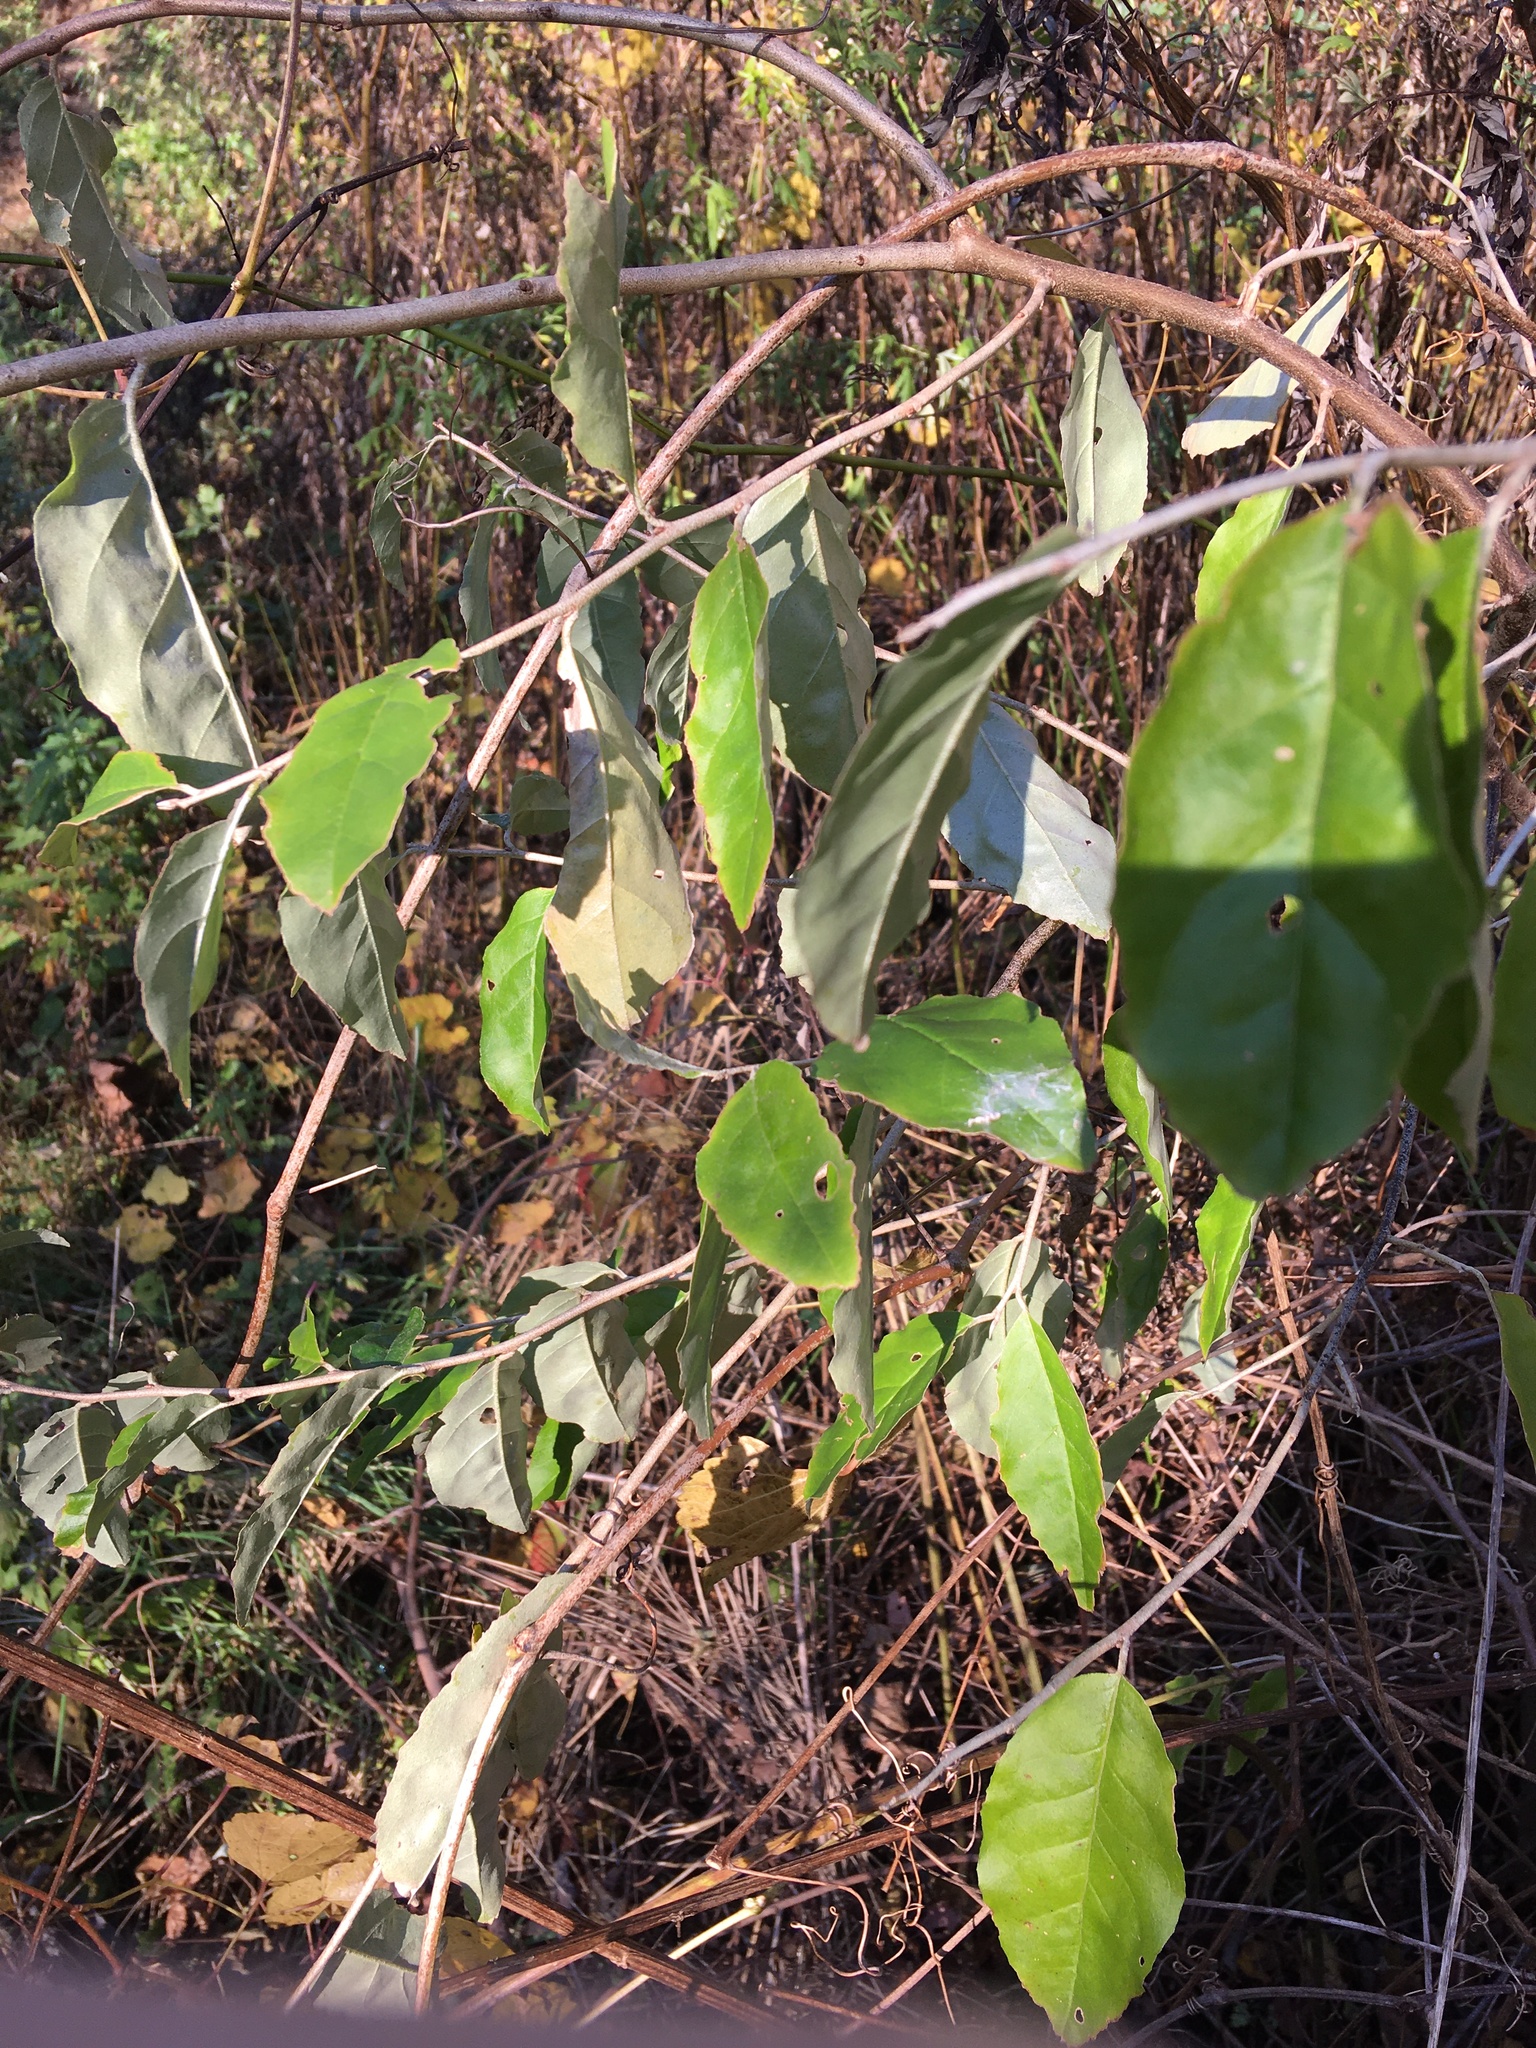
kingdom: Plantae
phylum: Tracheophyta
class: Magnoliopsida
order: Rosales
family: Elaeagnaceae
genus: Elaeagnus
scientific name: Elaeagnus umbellata
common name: Autumn olive
